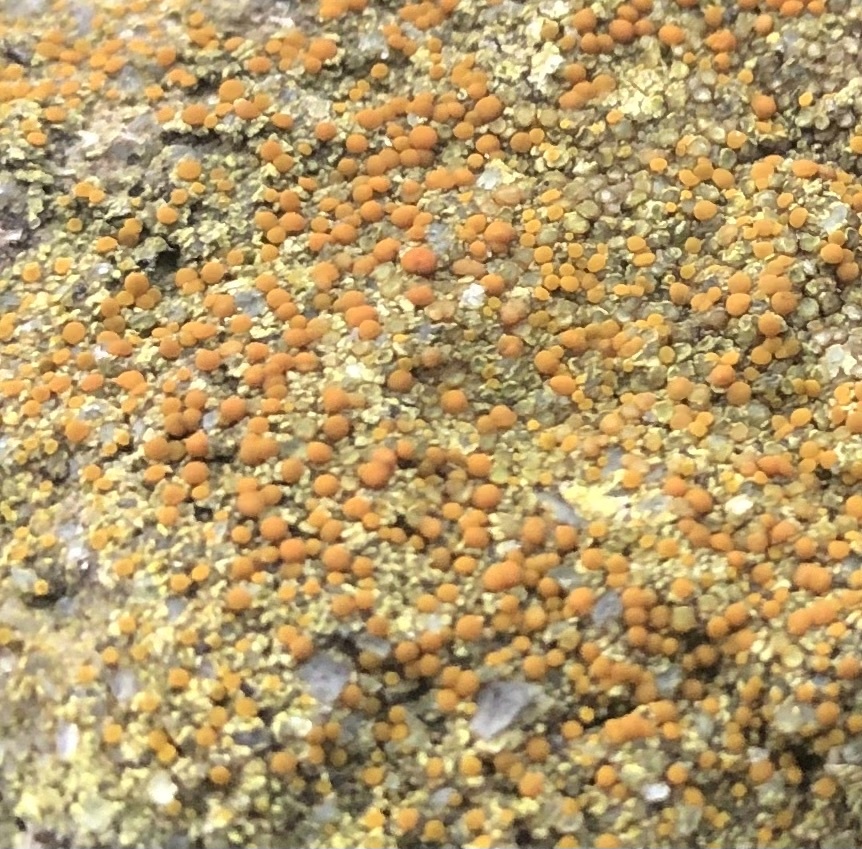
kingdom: Fungi
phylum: Ascomycota
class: Lecanoromycetes
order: Teloschistales
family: Teloschistaceae
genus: Gyalolechia
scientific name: Gyalolechia flavovirescens
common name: Sulphur firedot
